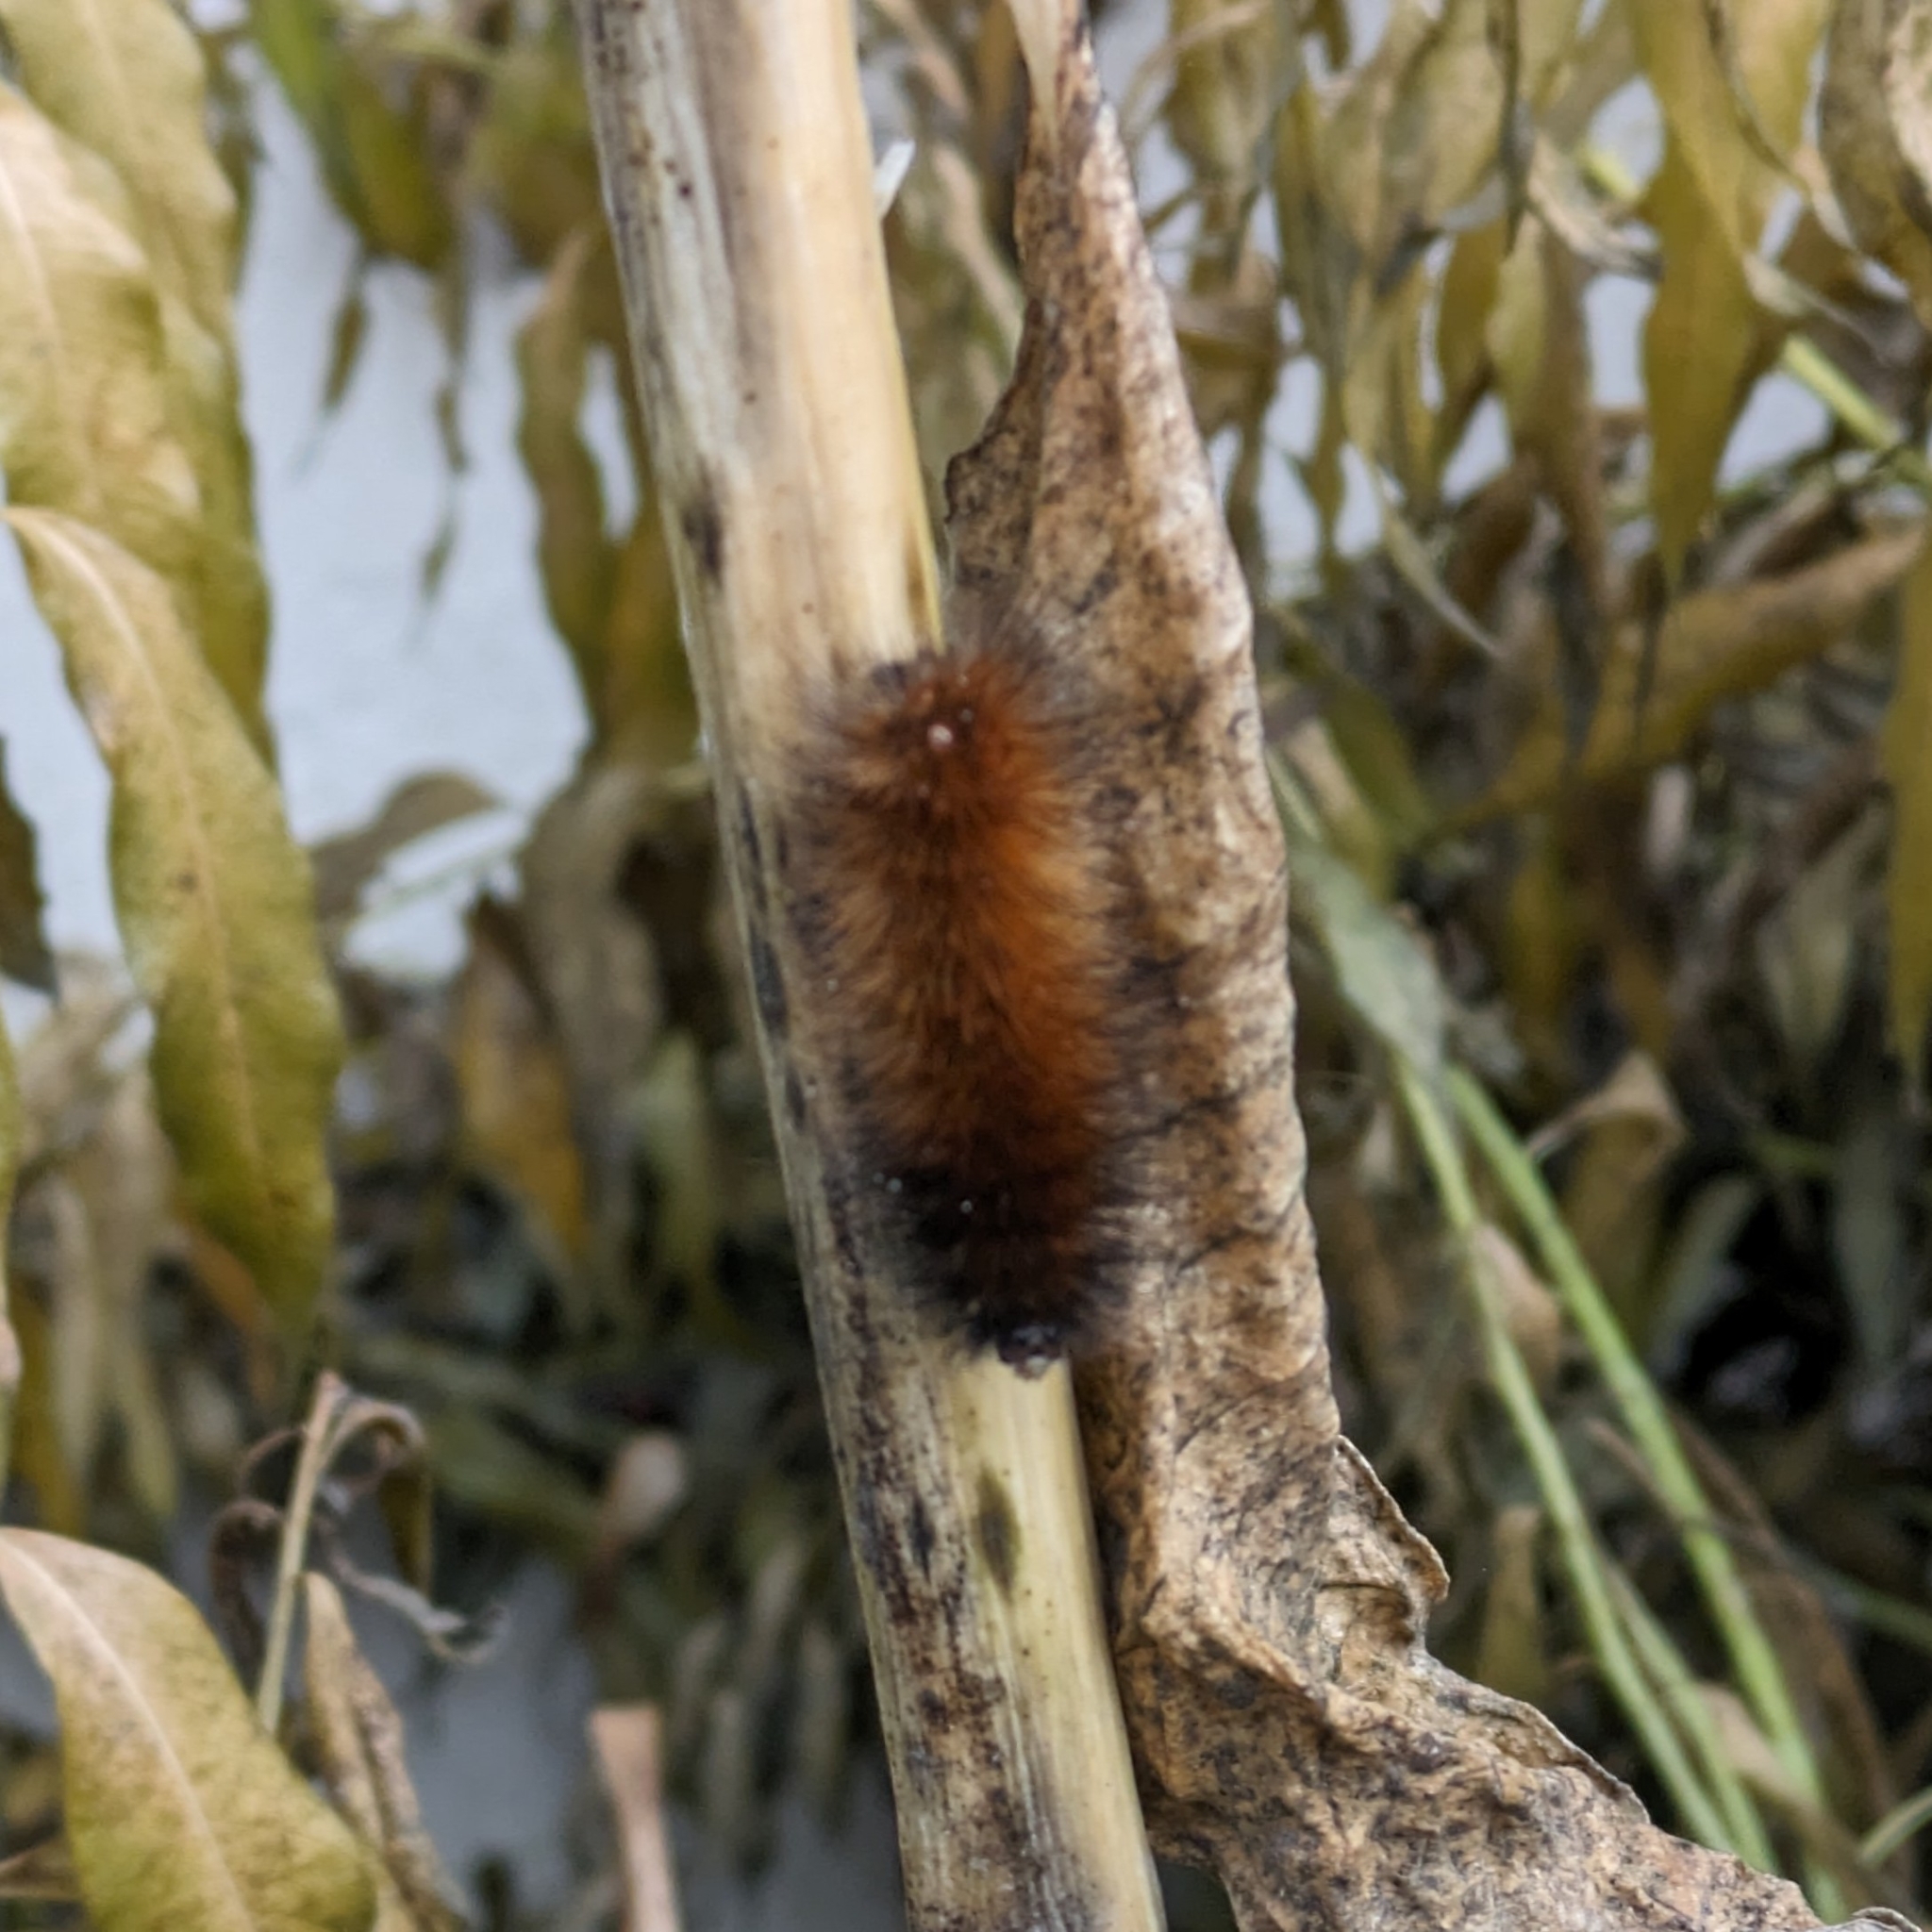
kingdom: Animalia
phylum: Arthropoda
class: Insecta
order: Lepidoptera
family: Erebidae
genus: Spilosoma
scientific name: Spilosoma virginica
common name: Virginia tiger moth
